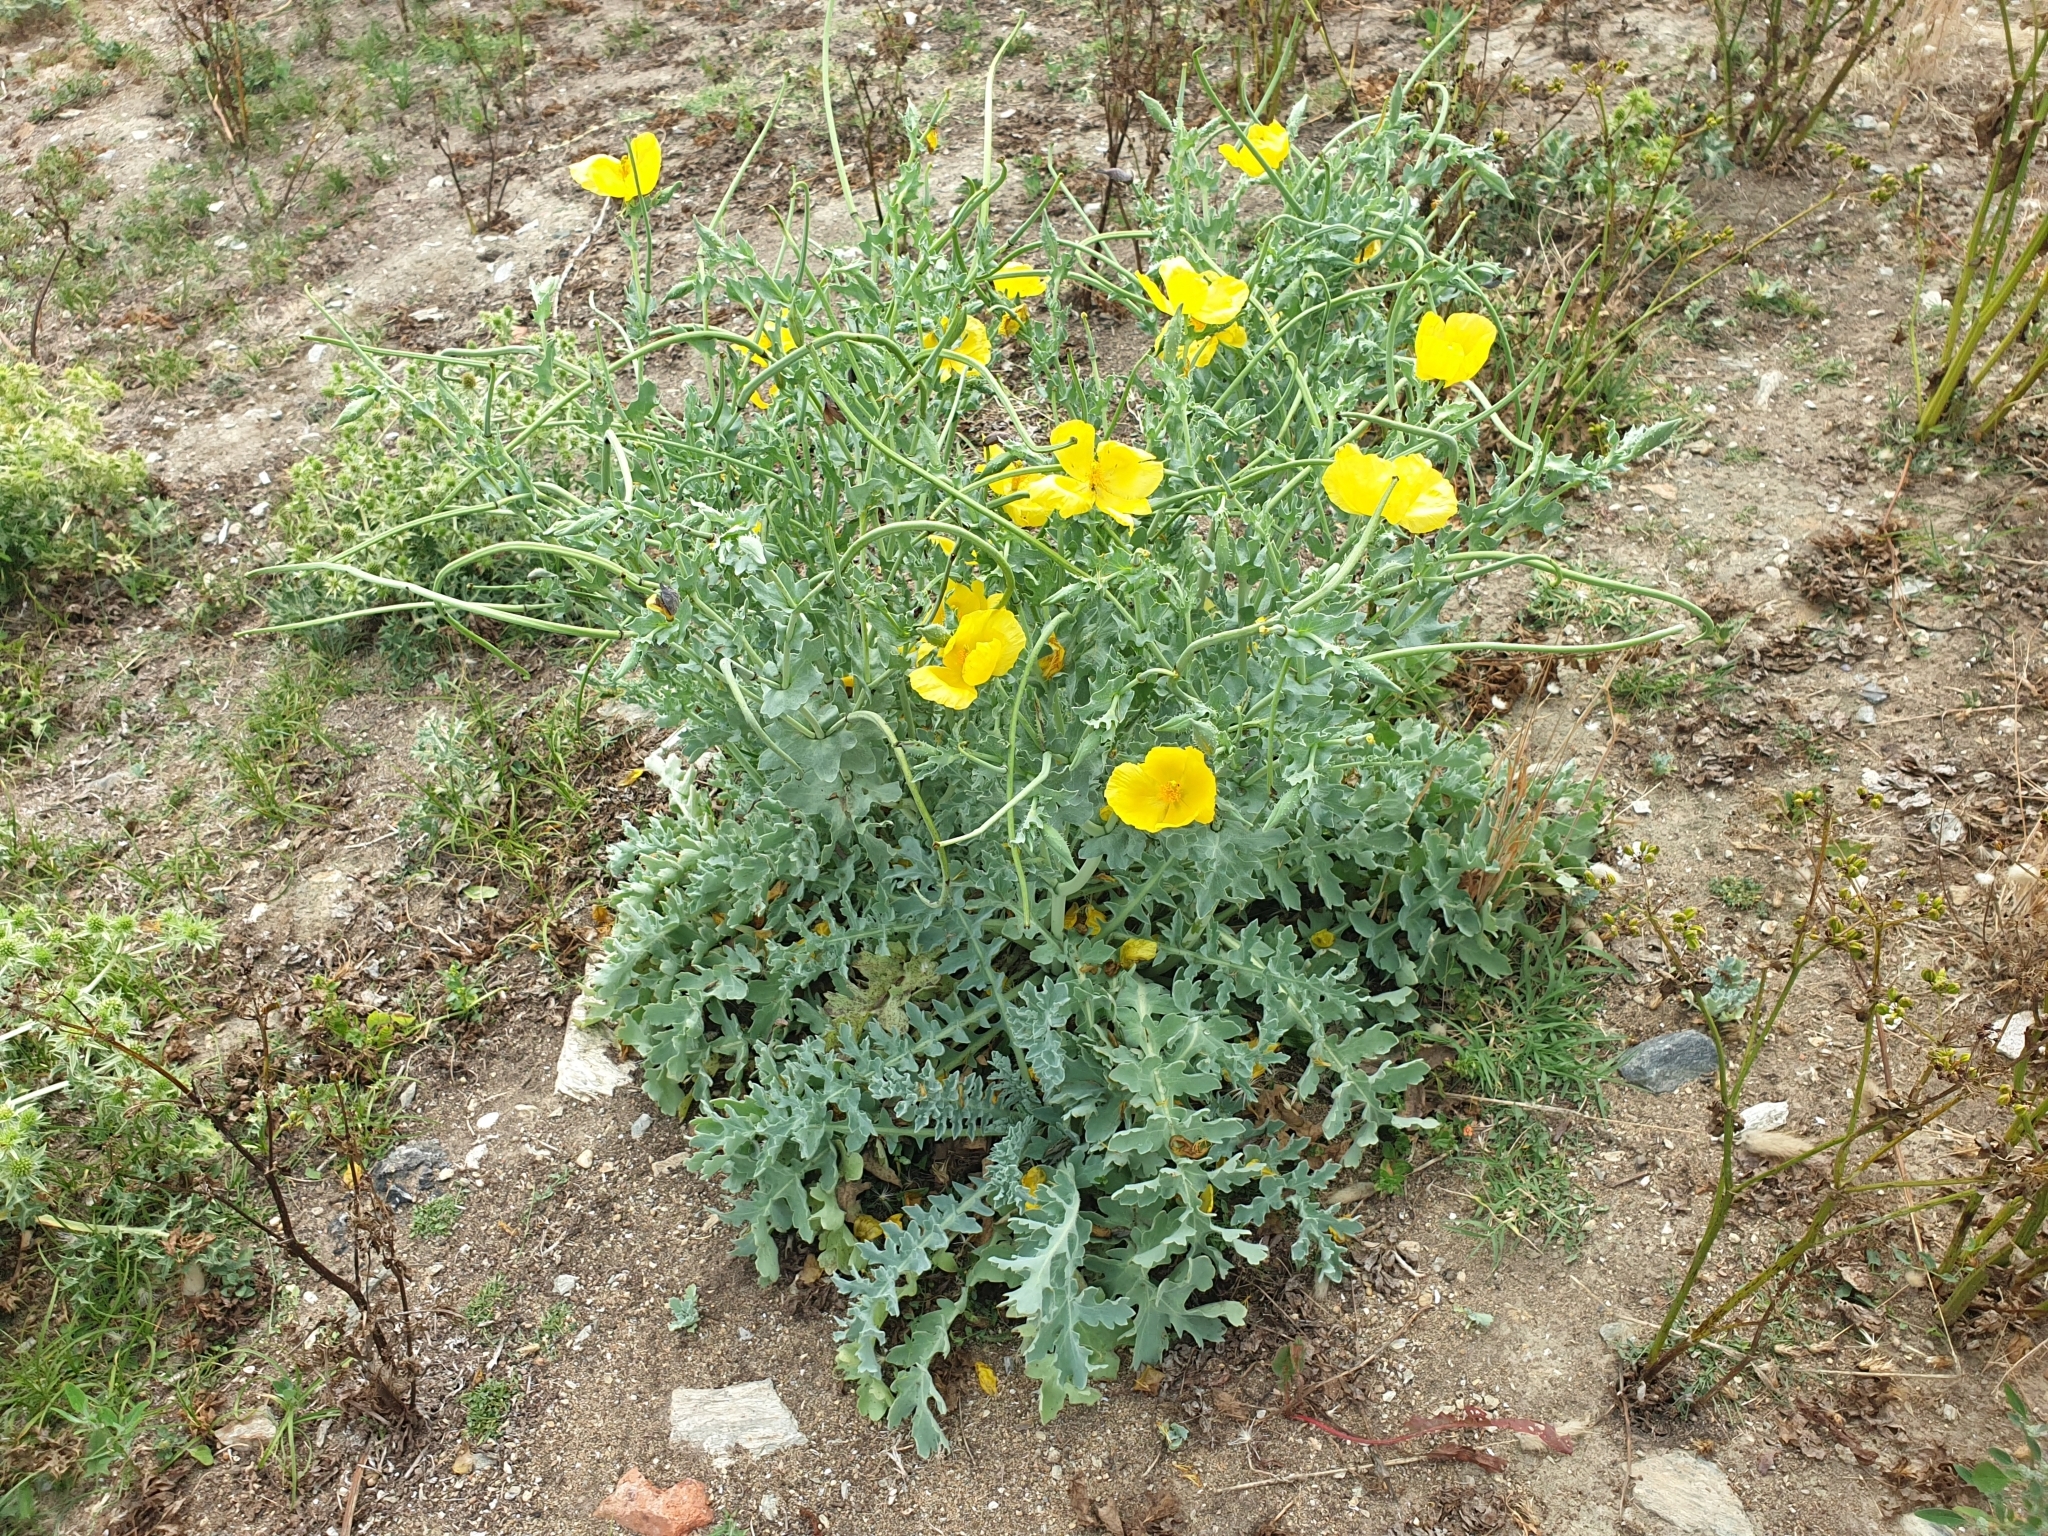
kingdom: Plantae
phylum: Tracheophyta
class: Magnoliopsida
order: Ranunculales
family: Papaveraceae
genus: Glaucium
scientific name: Glaucium flavum
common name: Yellow horned-poppy
